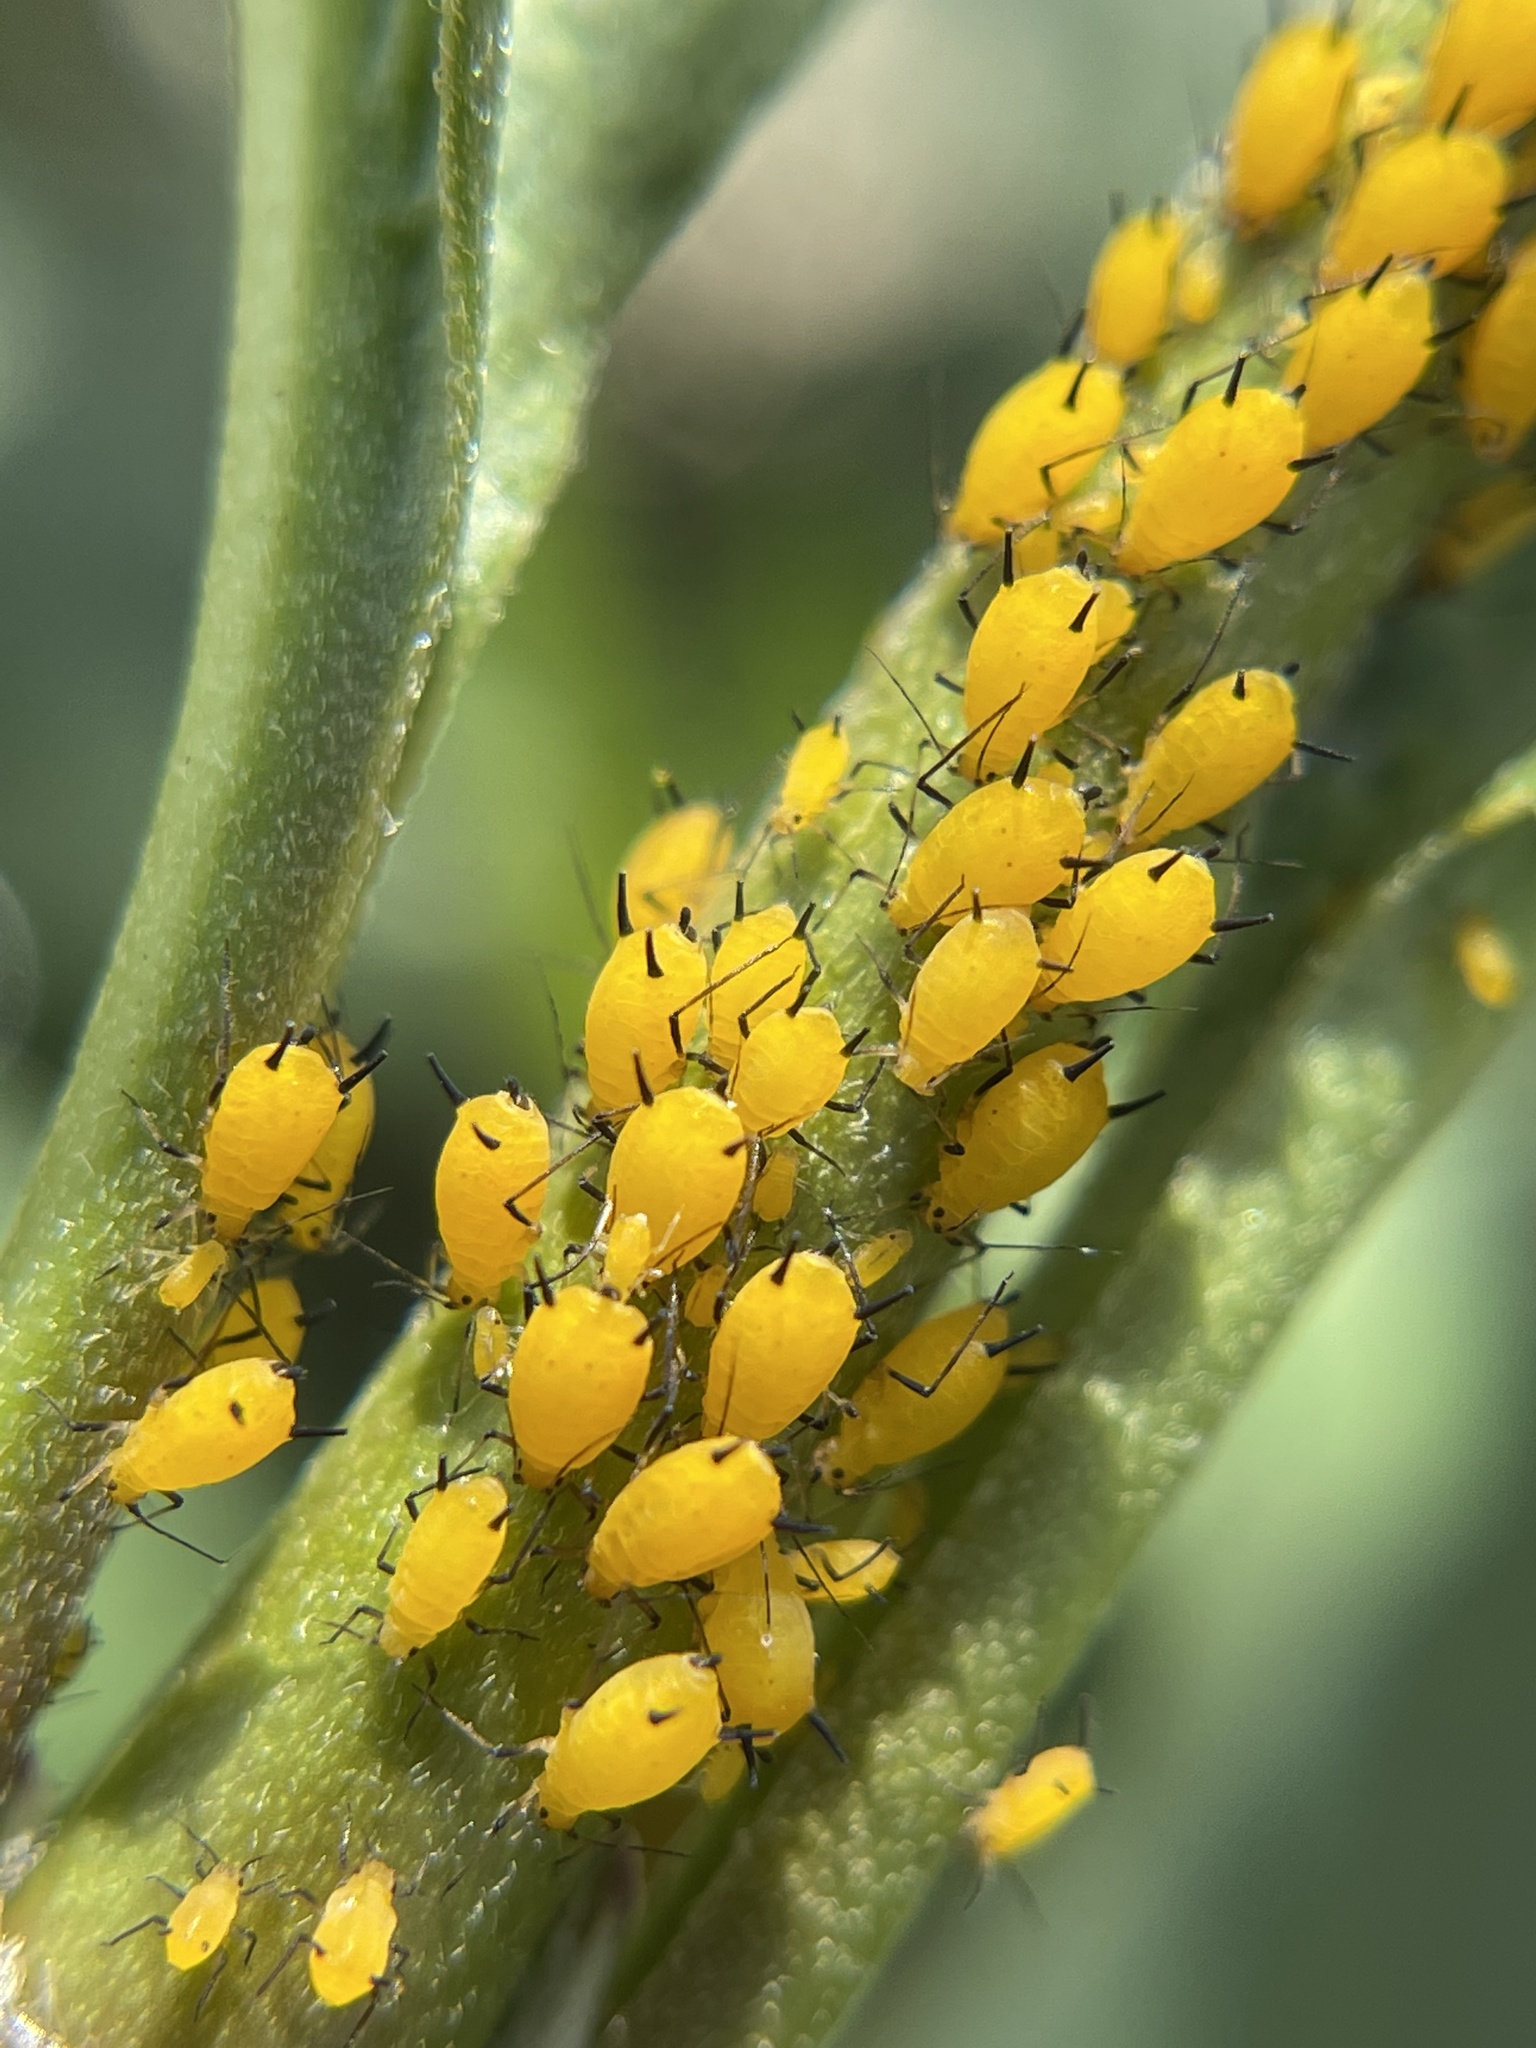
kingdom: Animalia
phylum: Arthropoda
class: Insecta
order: Hemiptera
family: Aphididae
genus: Aphis
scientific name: Aphis nerii
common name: Oleander aphid
